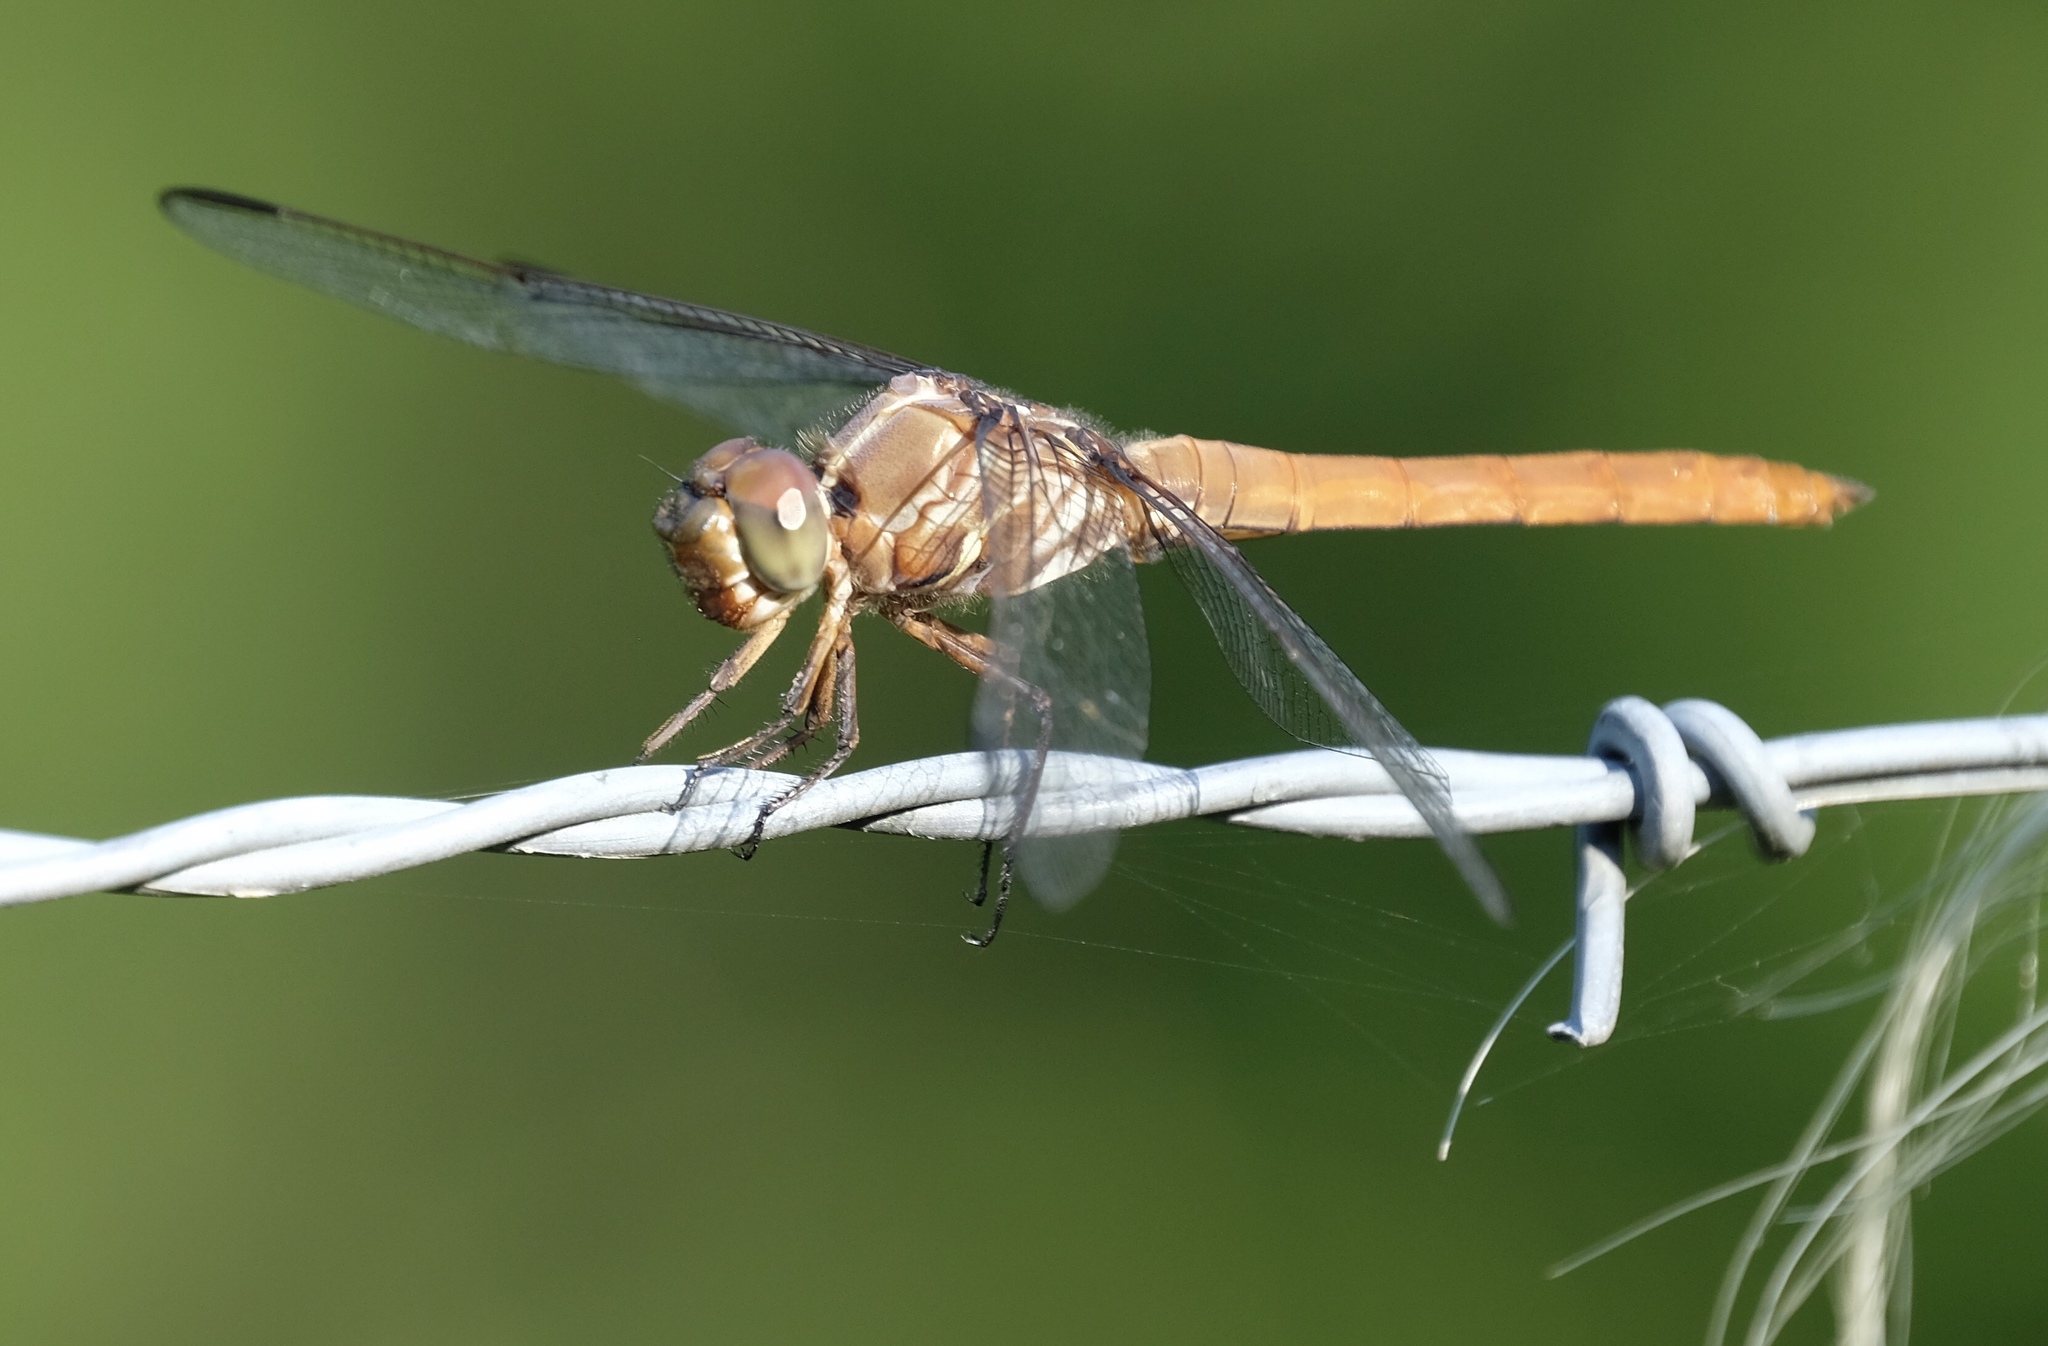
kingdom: Animalia
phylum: Arthropoda
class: Insecta
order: Odonata
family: Libellulidae
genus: Orthemis
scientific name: Orthemis ferruginea
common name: Roseate skimmer
